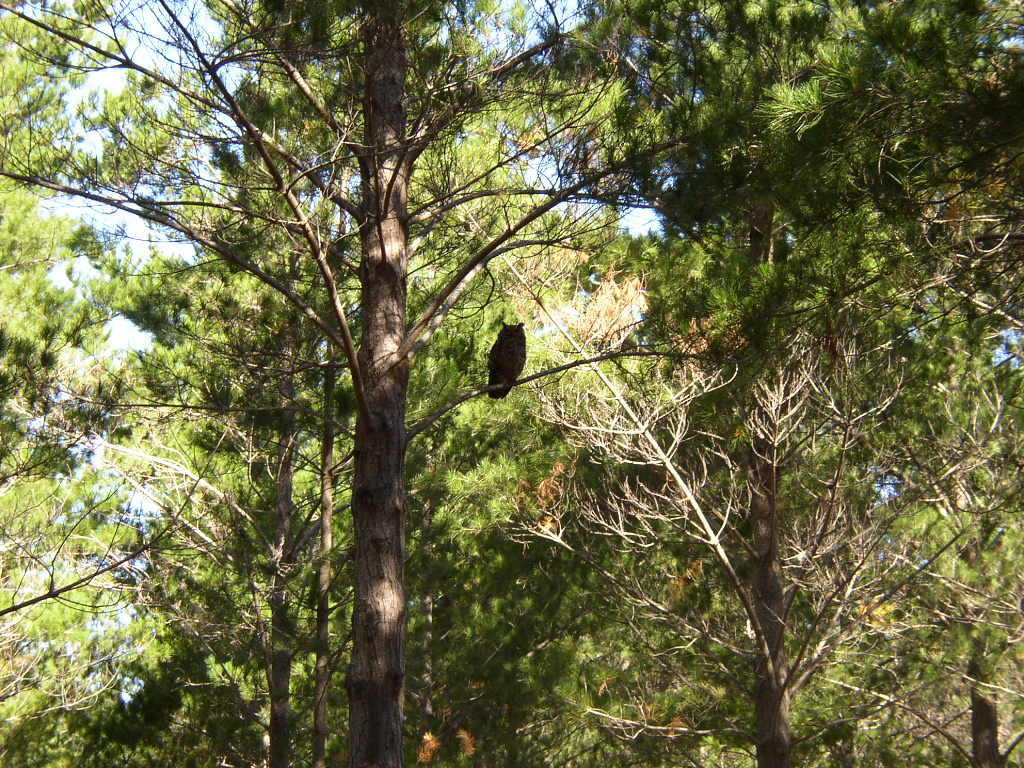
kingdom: Animalia
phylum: Chordata
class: Aves
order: Strigiformes
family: Strigidae
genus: Bubo
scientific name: Bubo africanus
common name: Spotted eagle-owl
